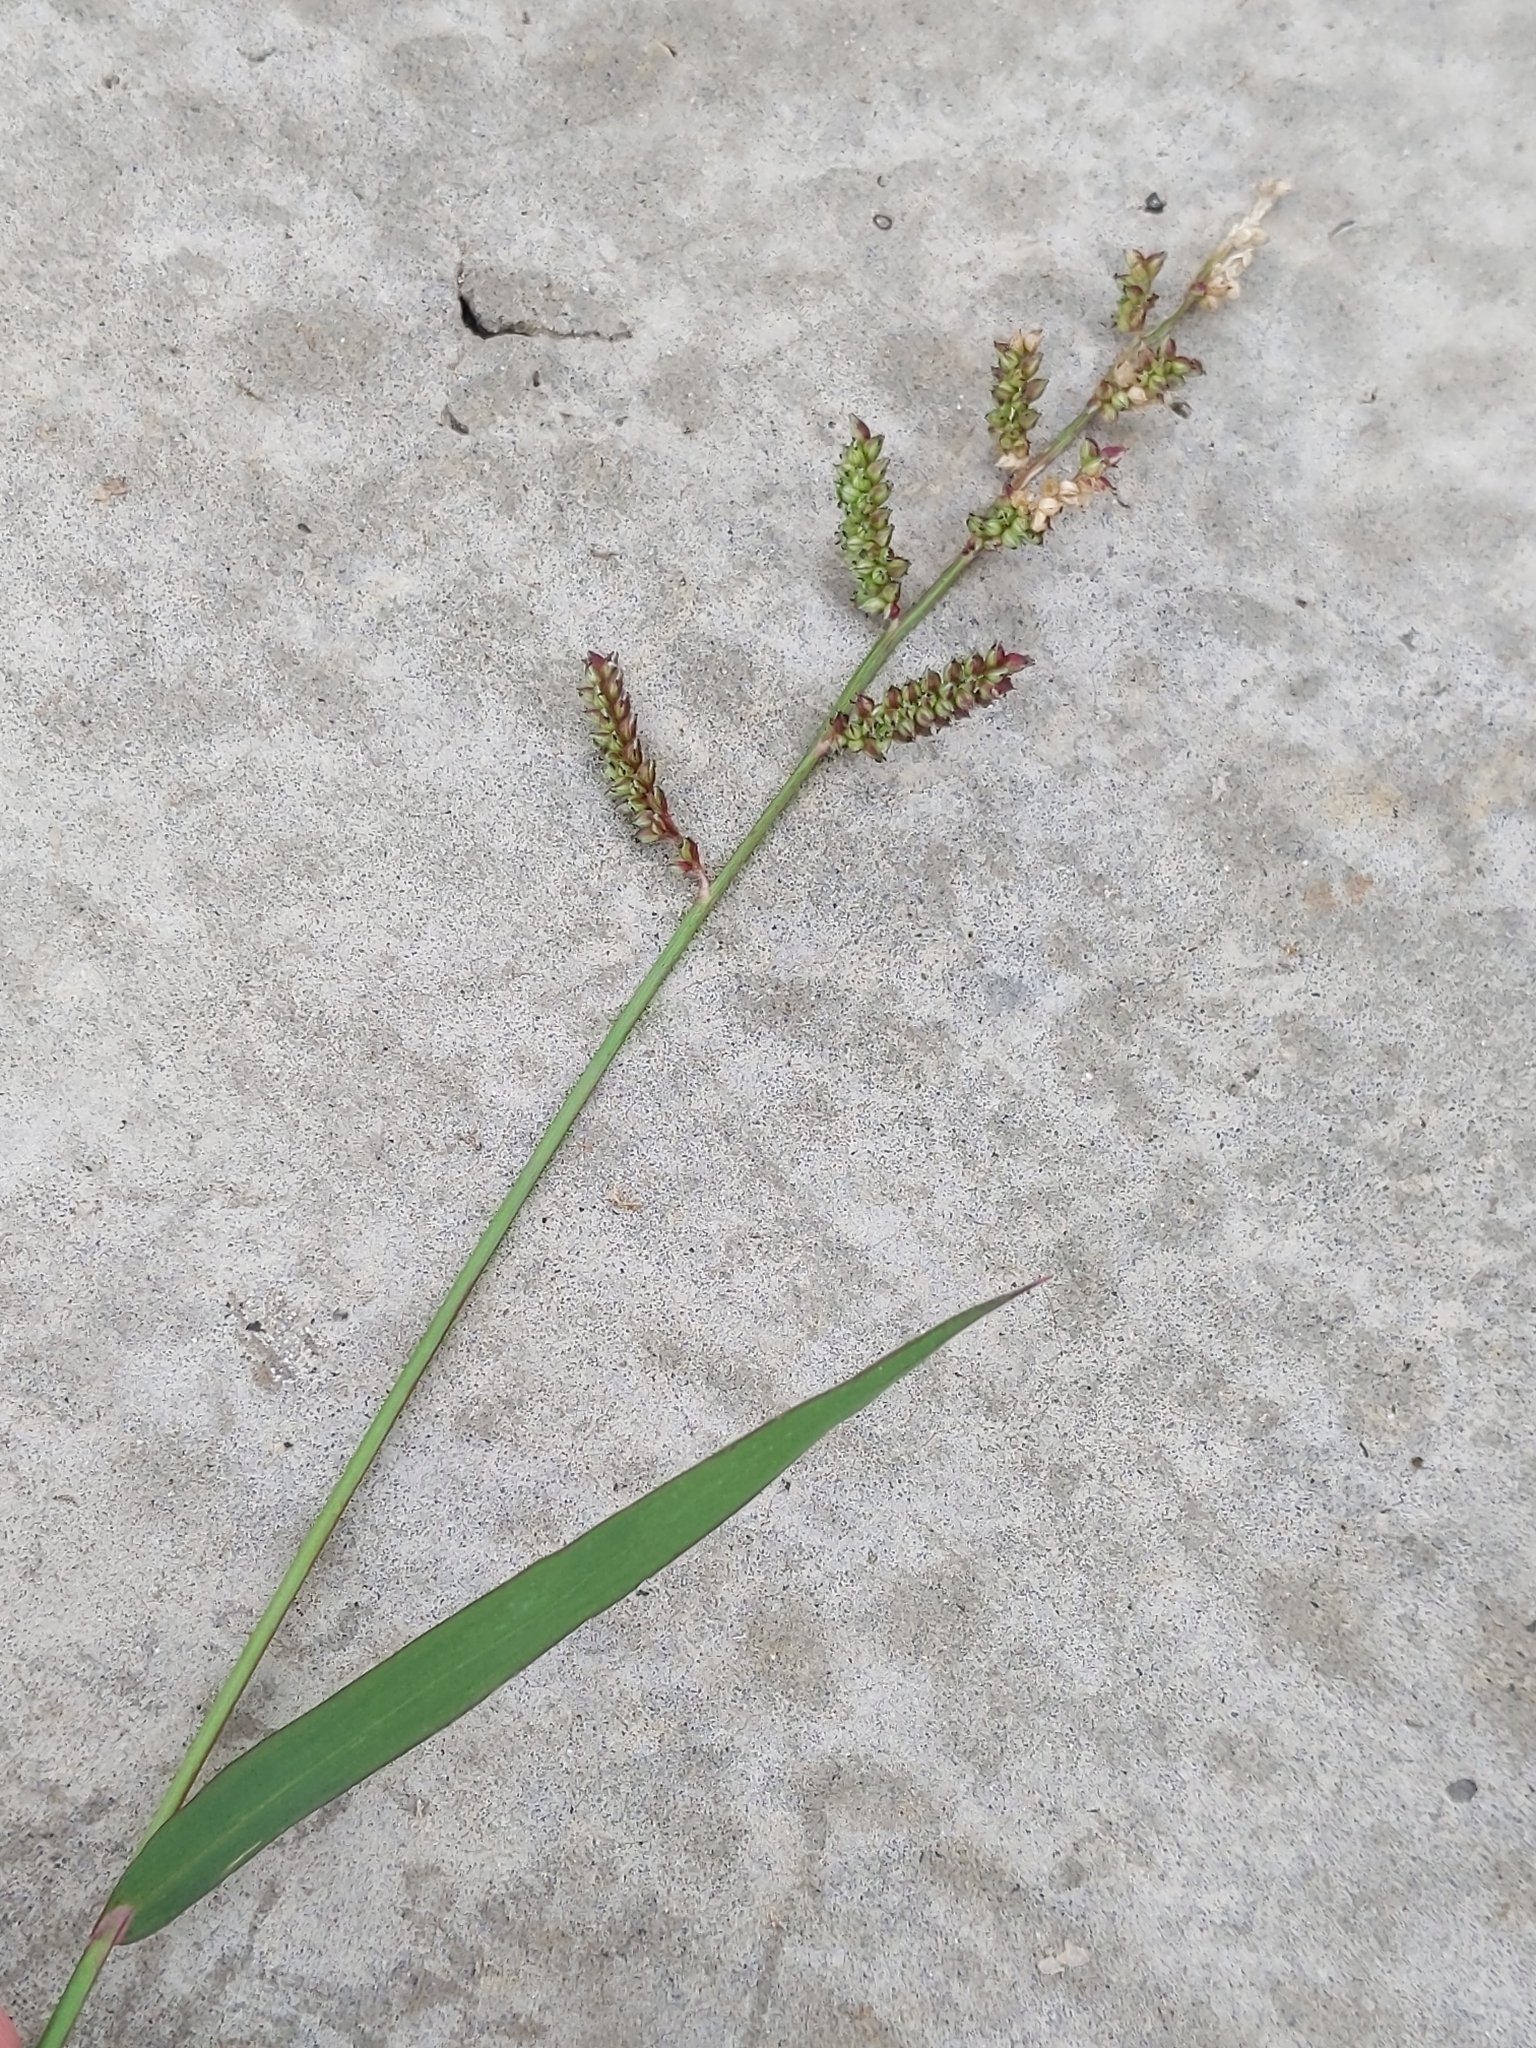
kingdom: Plantae
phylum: Tracheophyta
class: Liliopsida
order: Poales
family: Poaceae
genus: Echinochloa
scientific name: Echinochloa colonum
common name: Jungle rice
